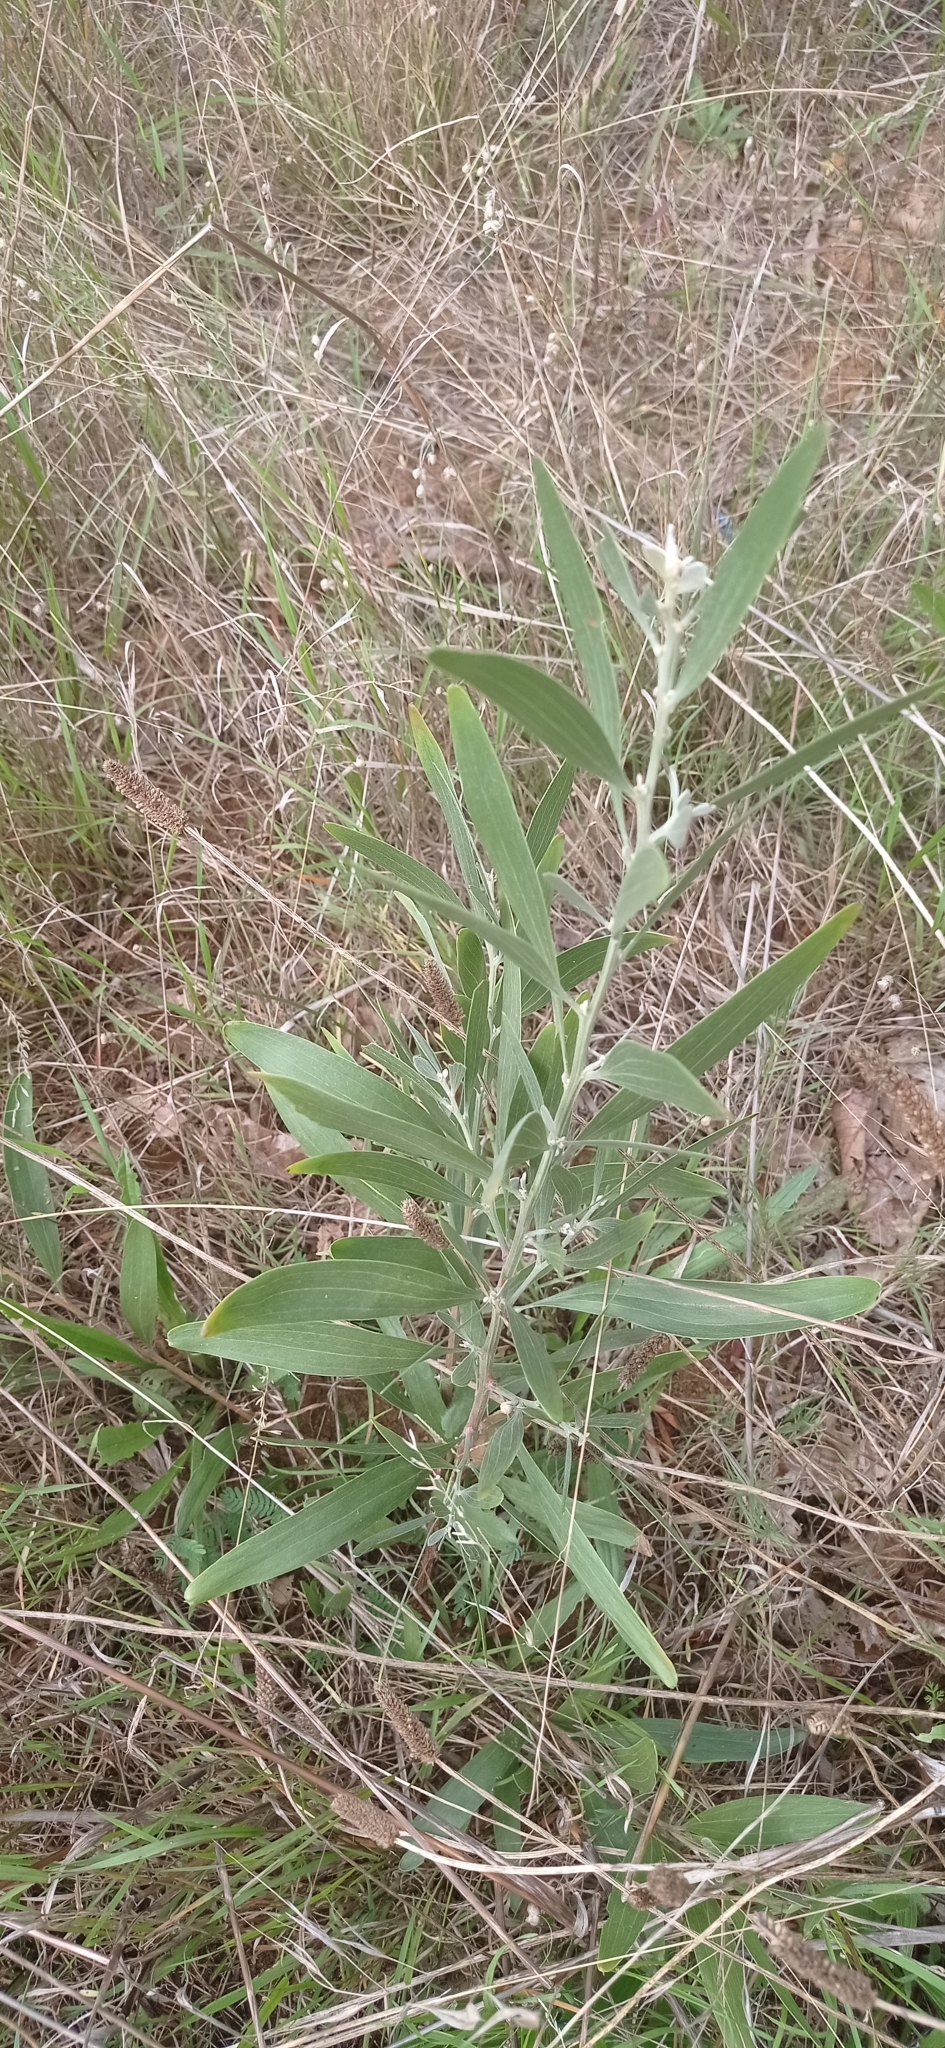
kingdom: Plantae
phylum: Tracheophyta
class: Magnoliopsida
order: Fabales
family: Fabaceae
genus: Acacia
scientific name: Acacia melanoxylon
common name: Blackwood
